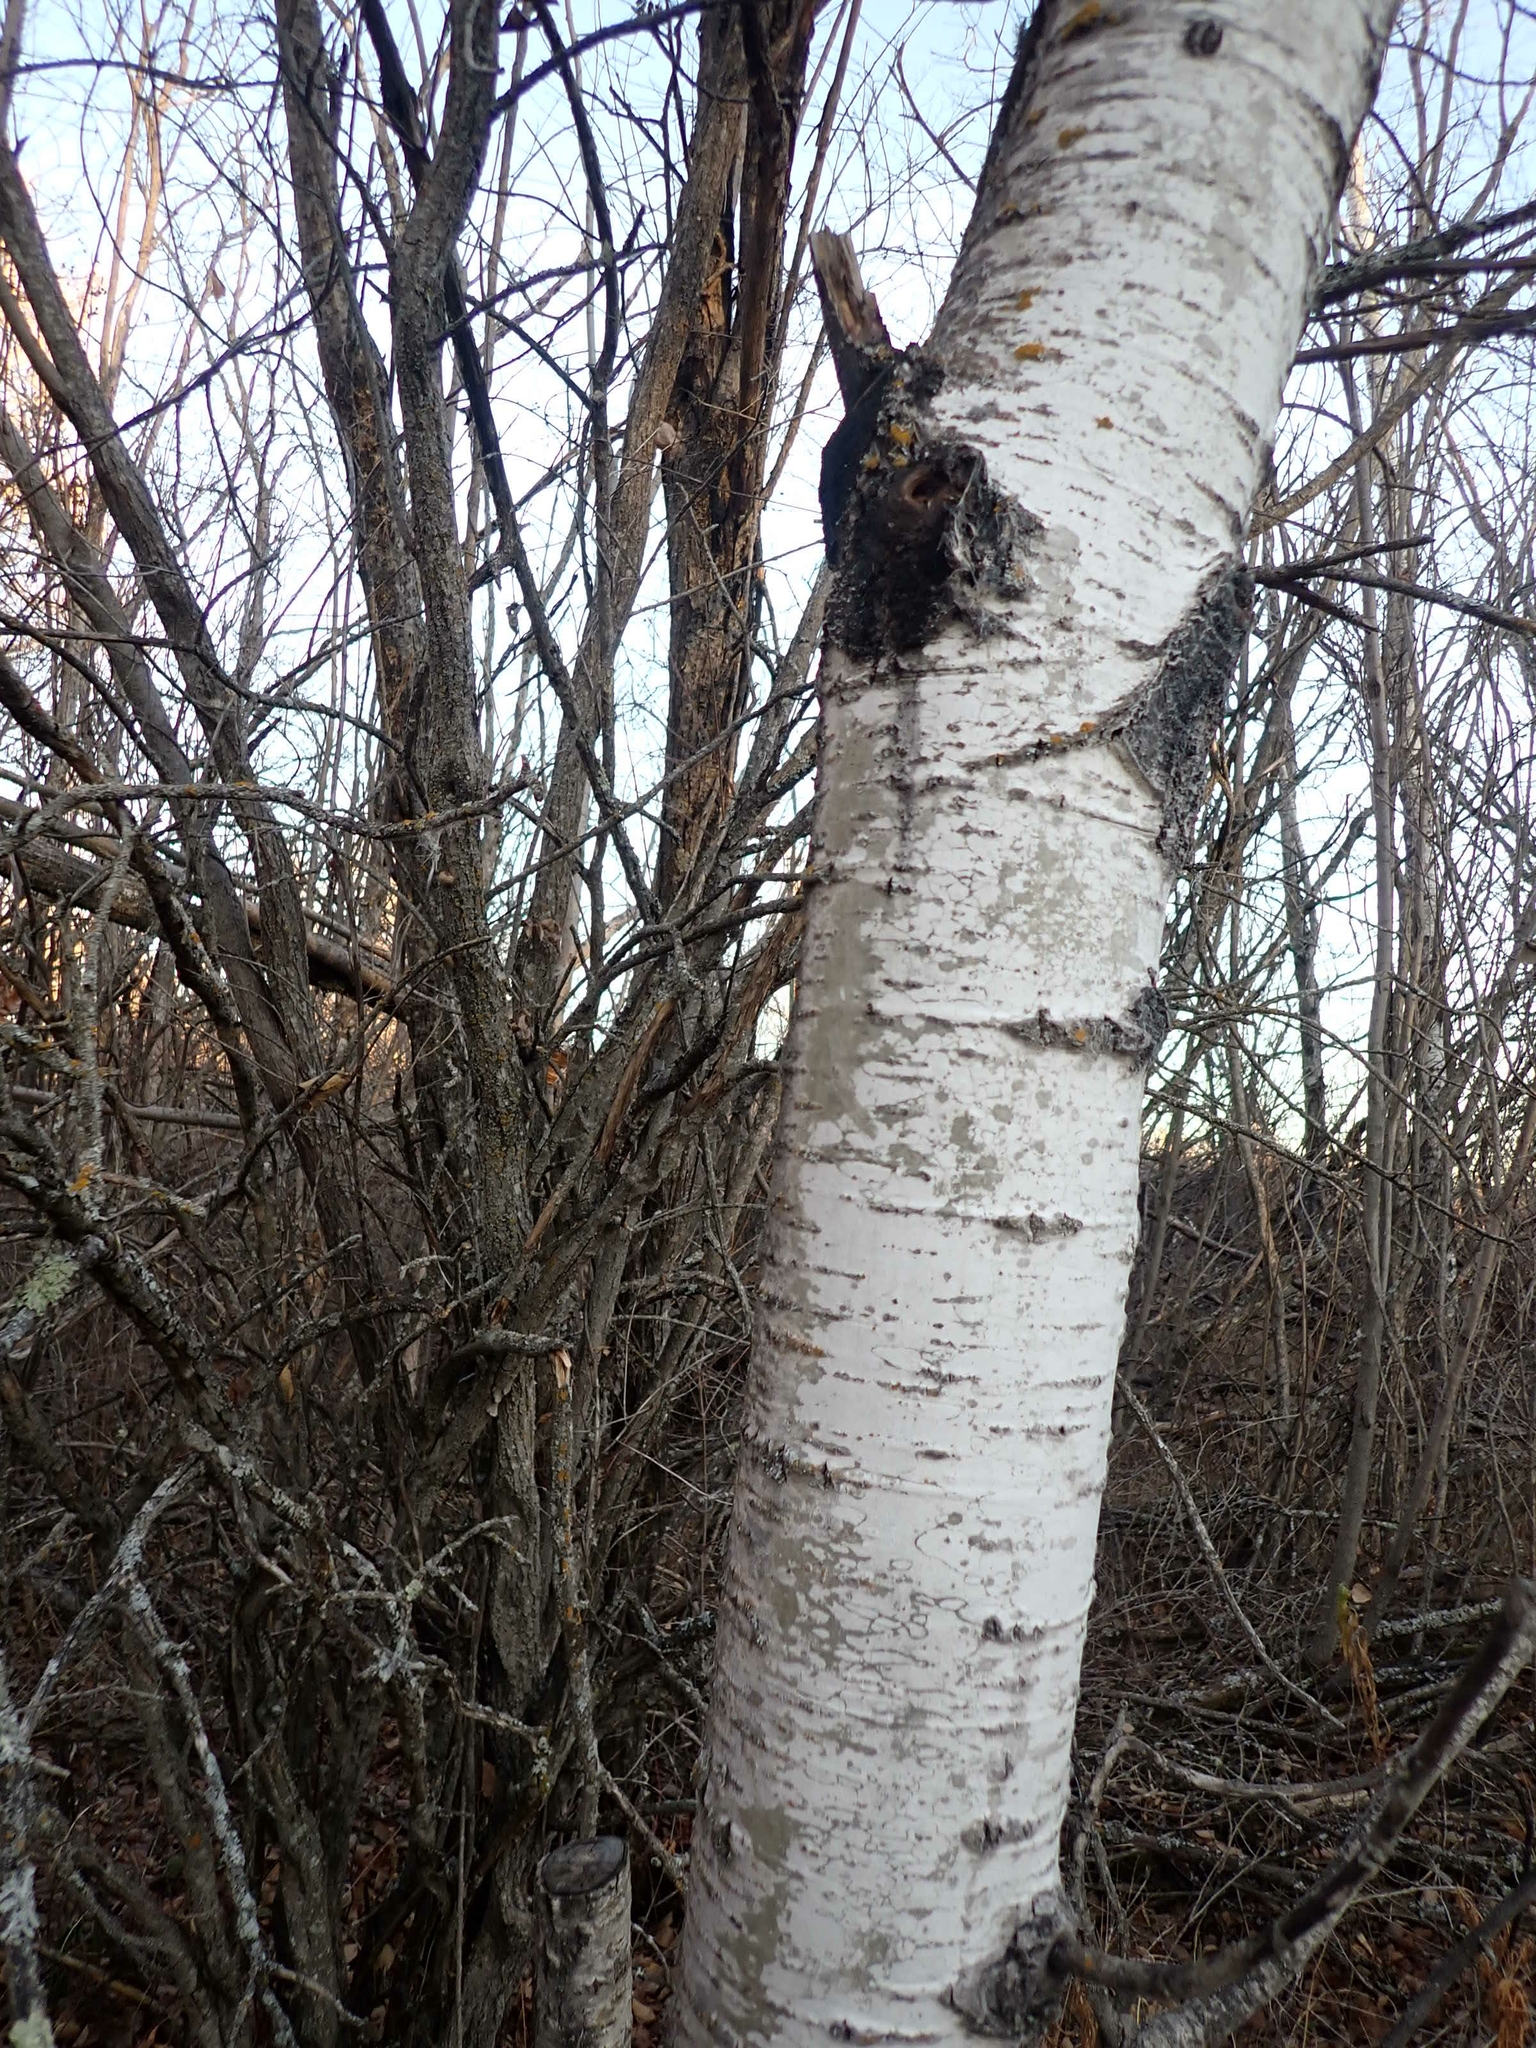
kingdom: Plantae
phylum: Tracheophyta
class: Magnoliopsida
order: Malpighiales
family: Salicaceae
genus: Populus
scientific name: Populus tremuloides
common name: Quaking aspen
